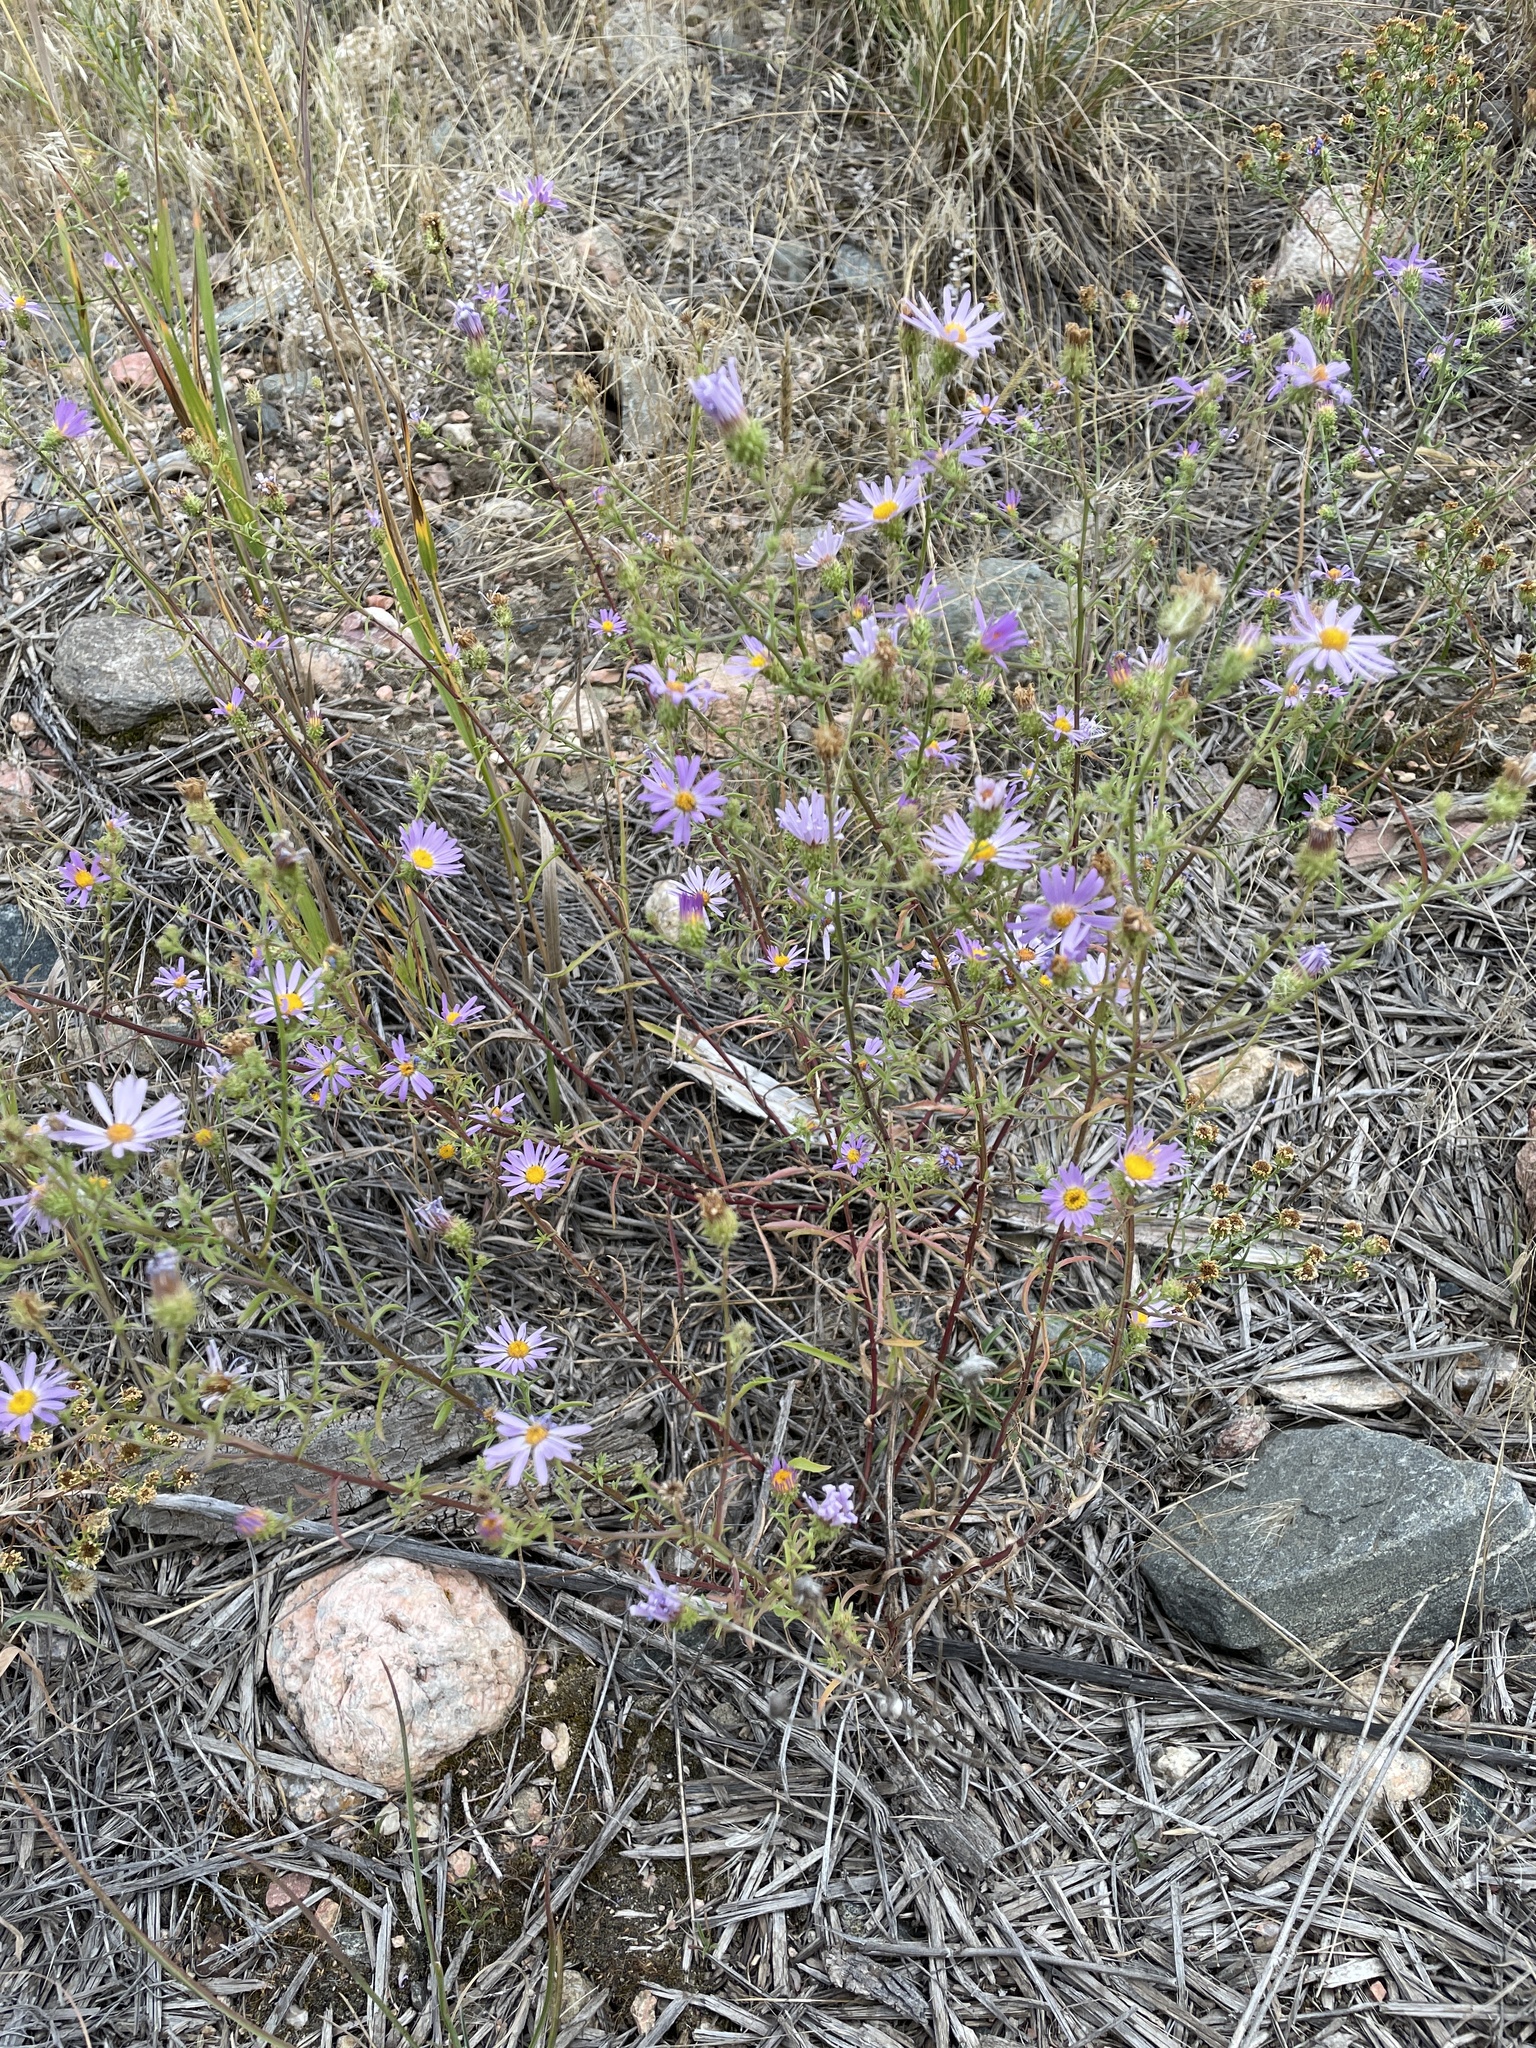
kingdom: Plantae
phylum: Tracheophyta
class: Magnoliopsida
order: Asterales
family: Asteraceae
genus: Dieteria
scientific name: Dieteria canescens
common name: Hoary-aster
